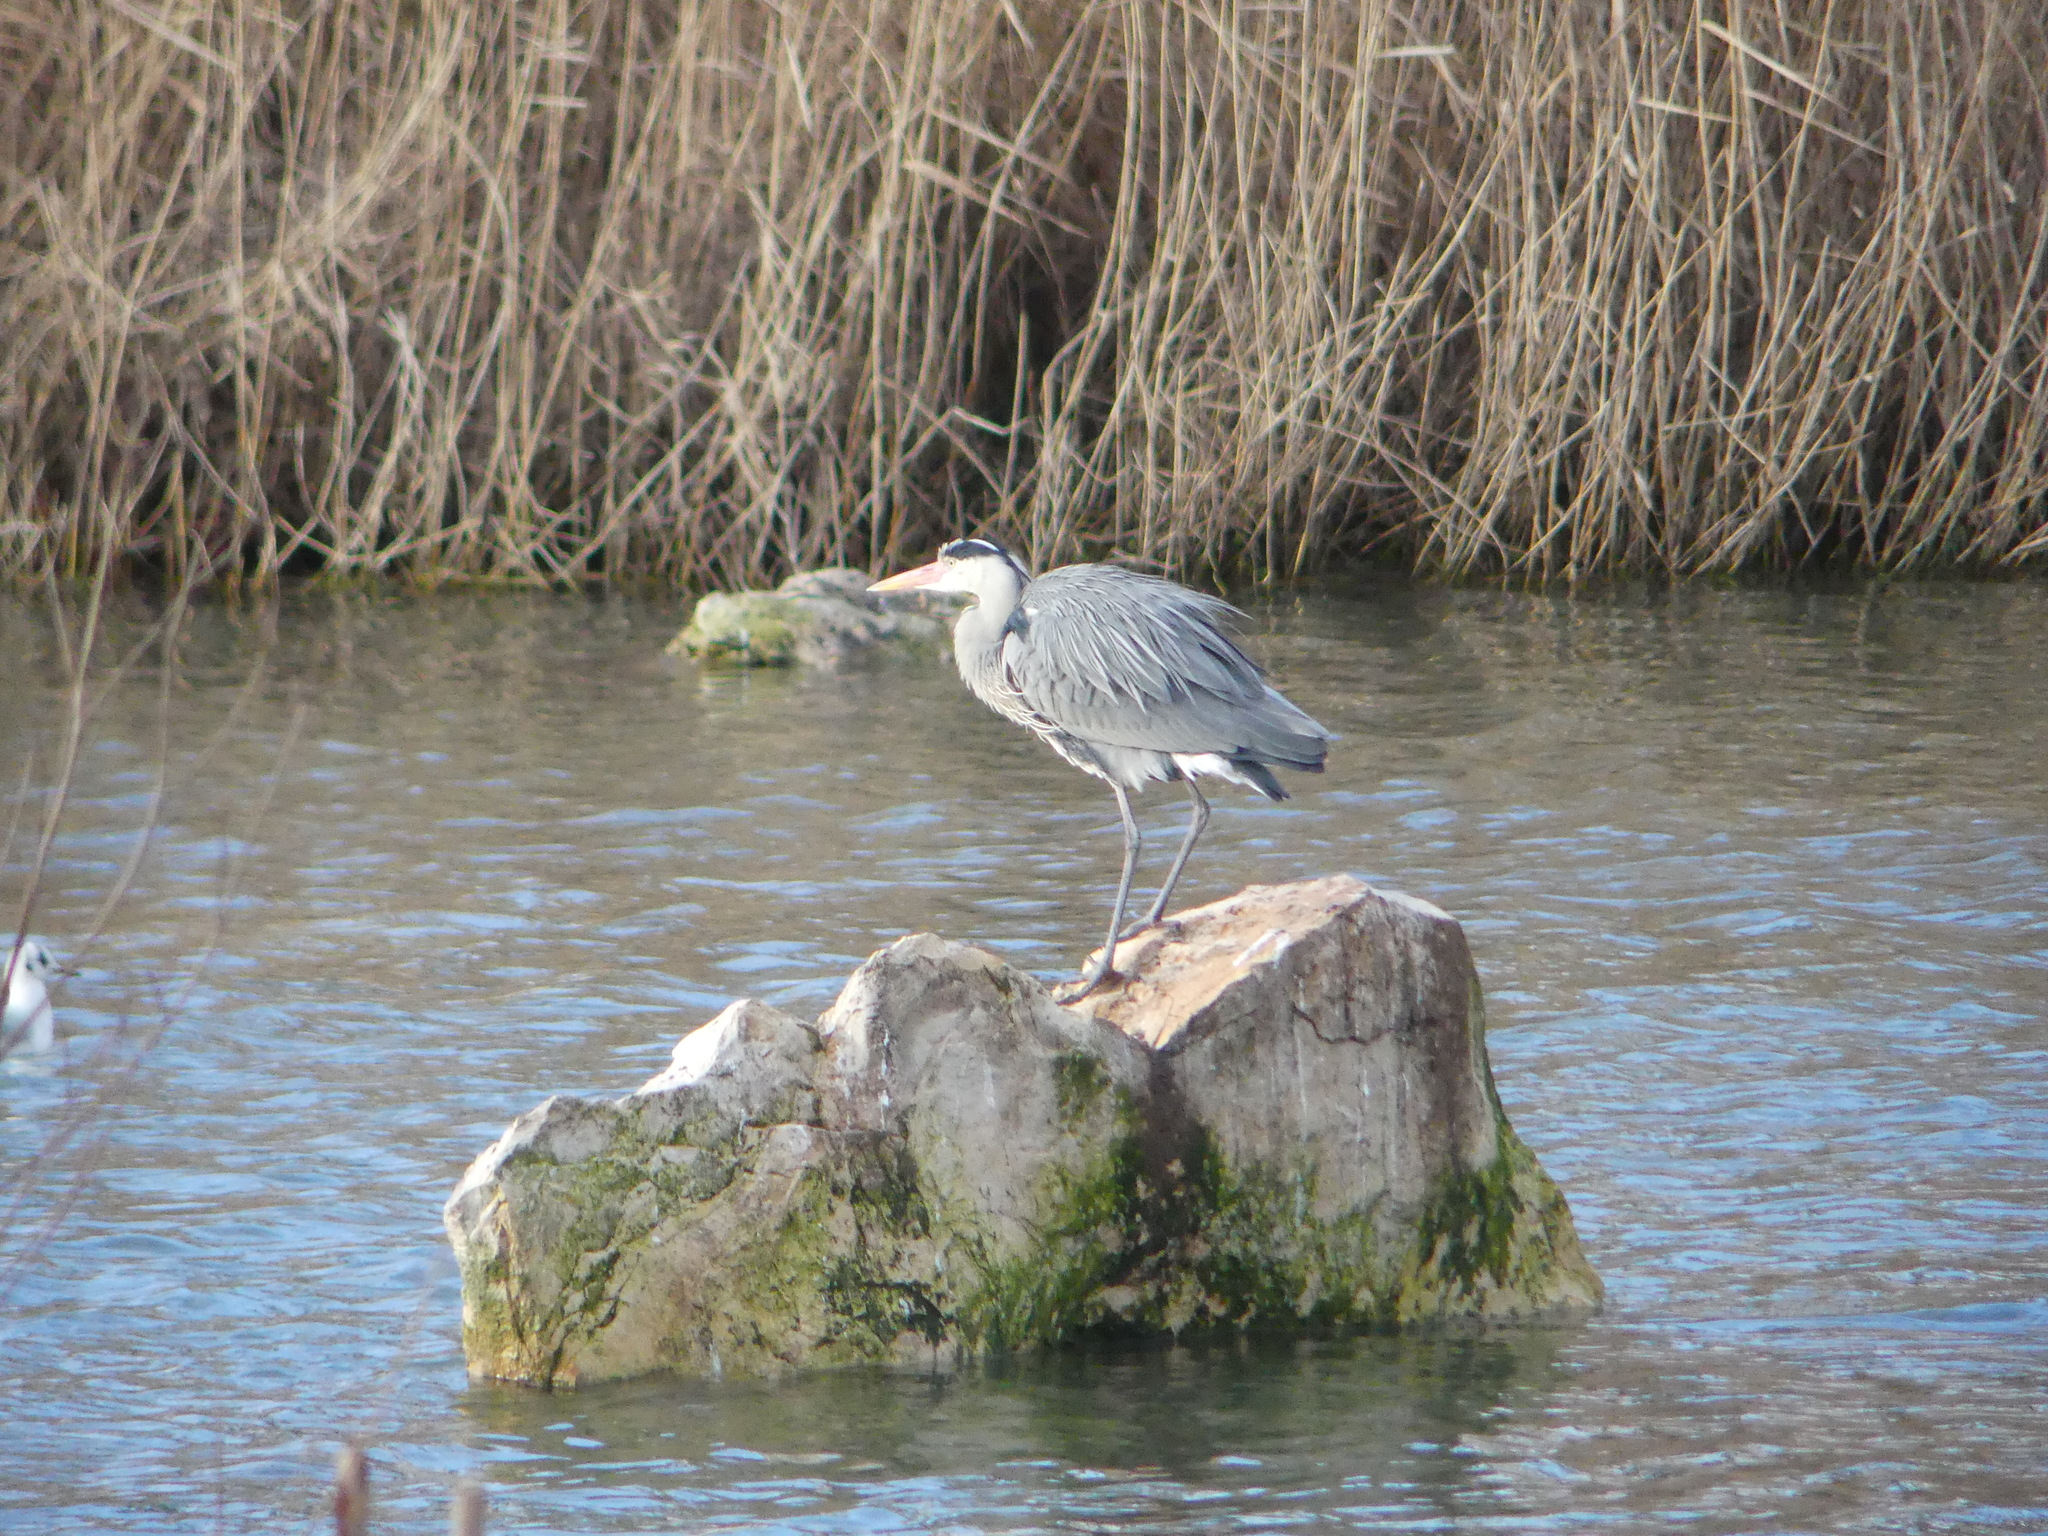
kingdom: Animalia
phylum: Chordata
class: Aves
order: Pelecaniformes
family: Ardeidae
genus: Ardea
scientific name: Ardea cinerea
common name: Grey heron
